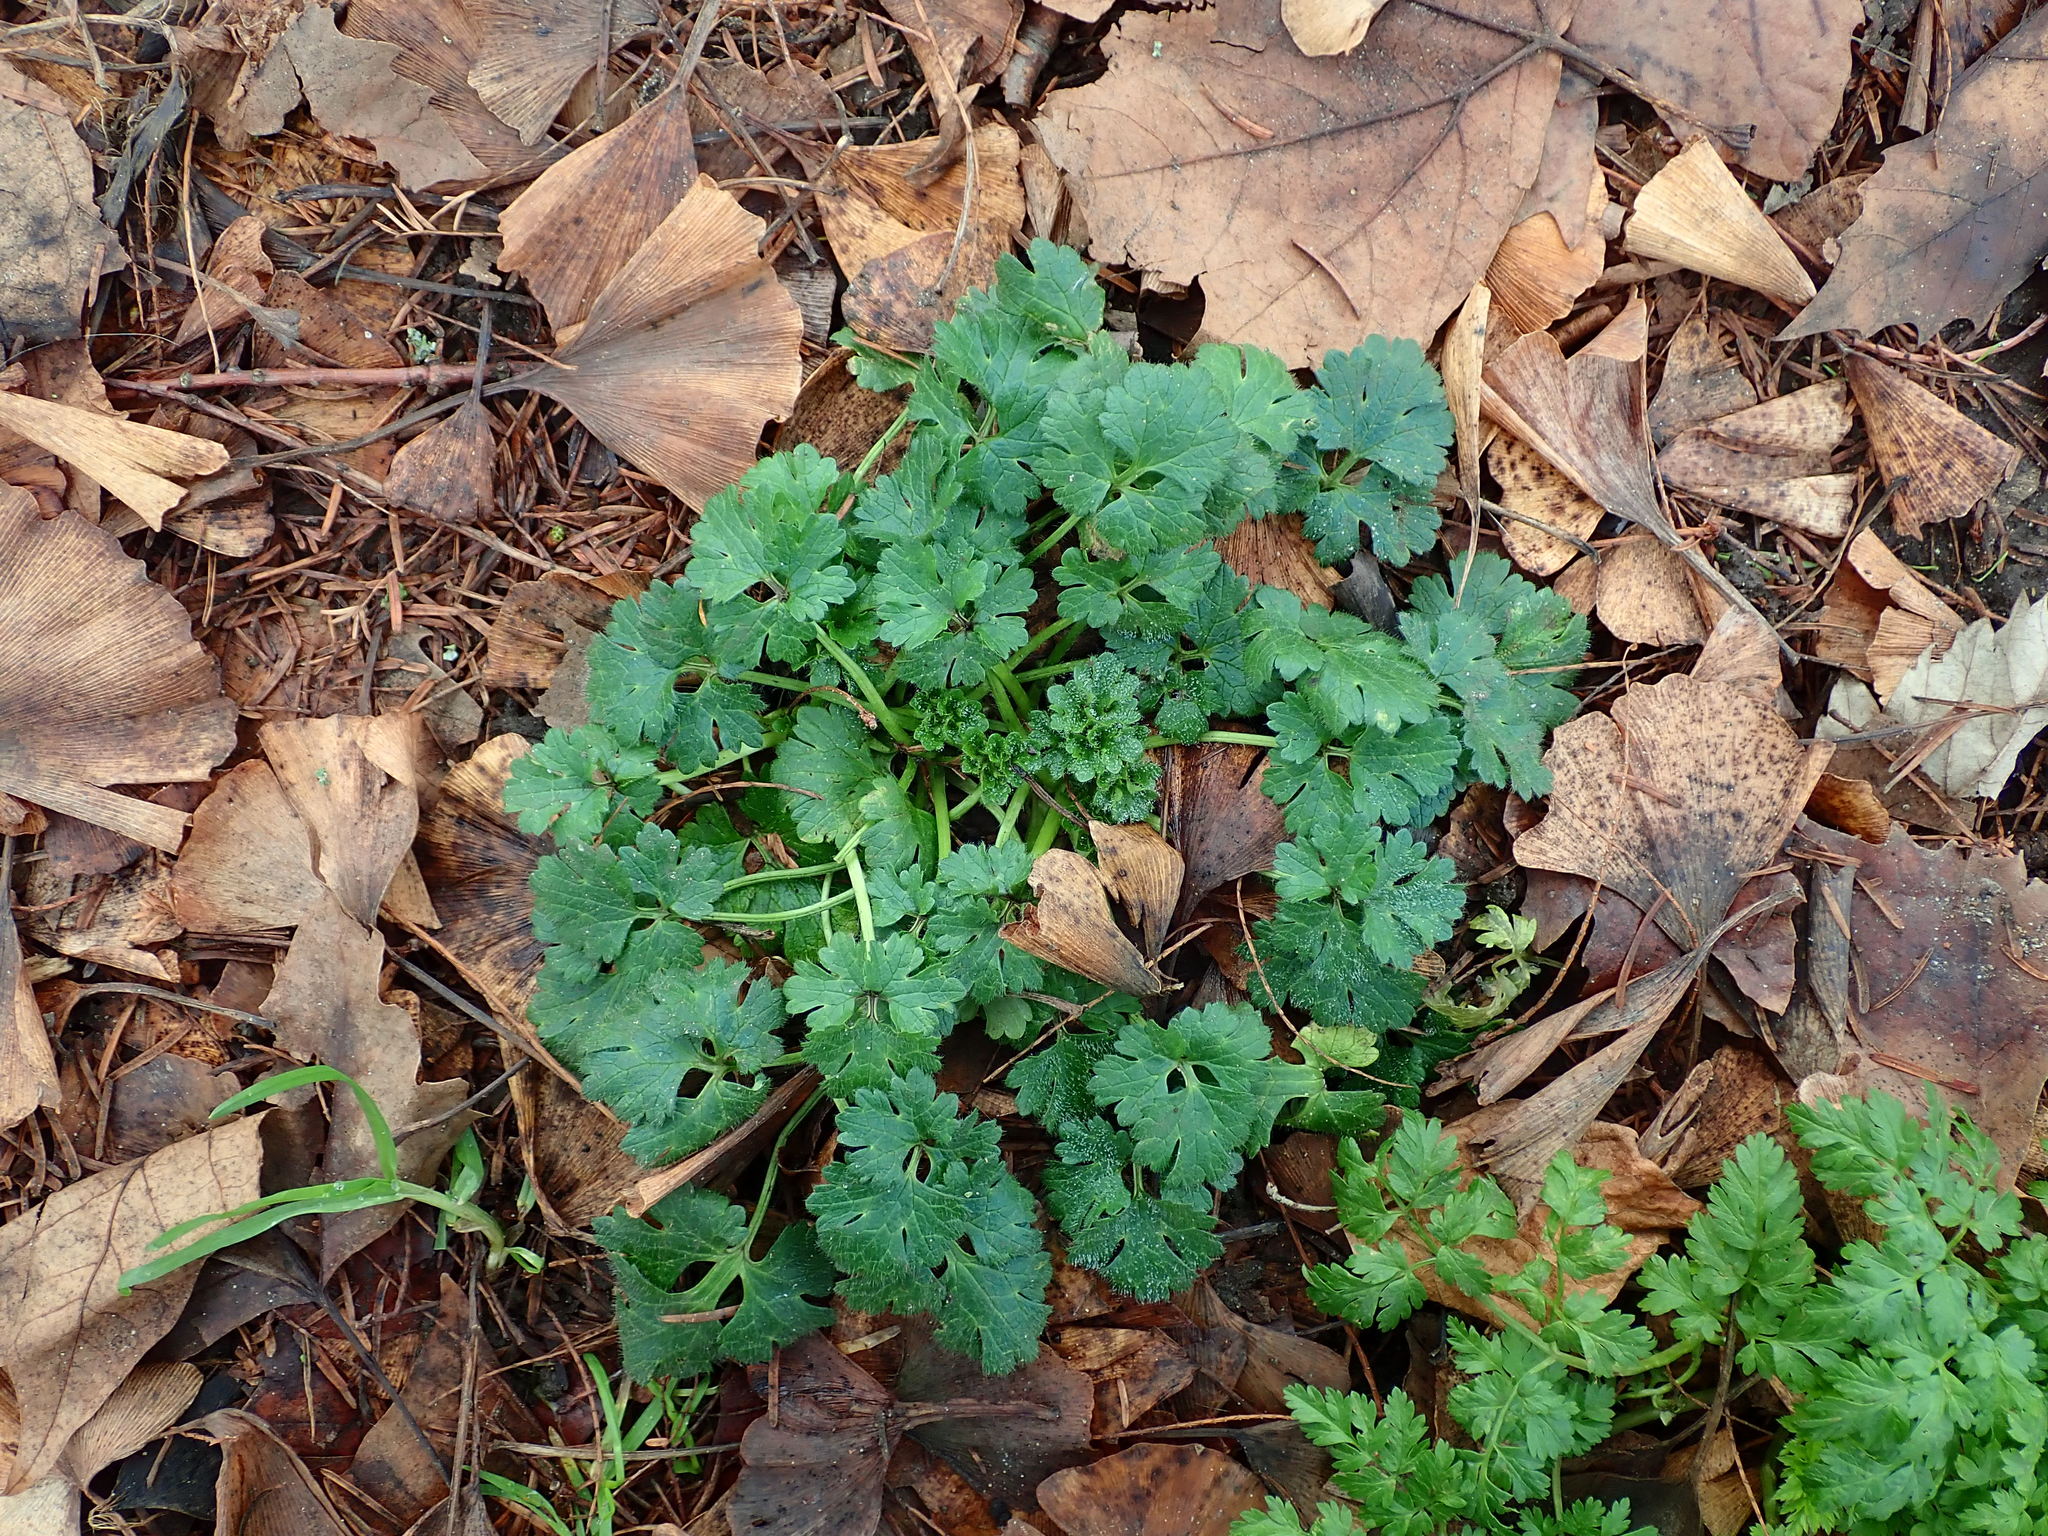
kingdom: Plantae
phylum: Tracheophyta
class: Magnoliopsida
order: Ranunculales
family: Ranunculaceae
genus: Ranunculus
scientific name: Ranunculus bulbosus
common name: Bulbous buttercup
